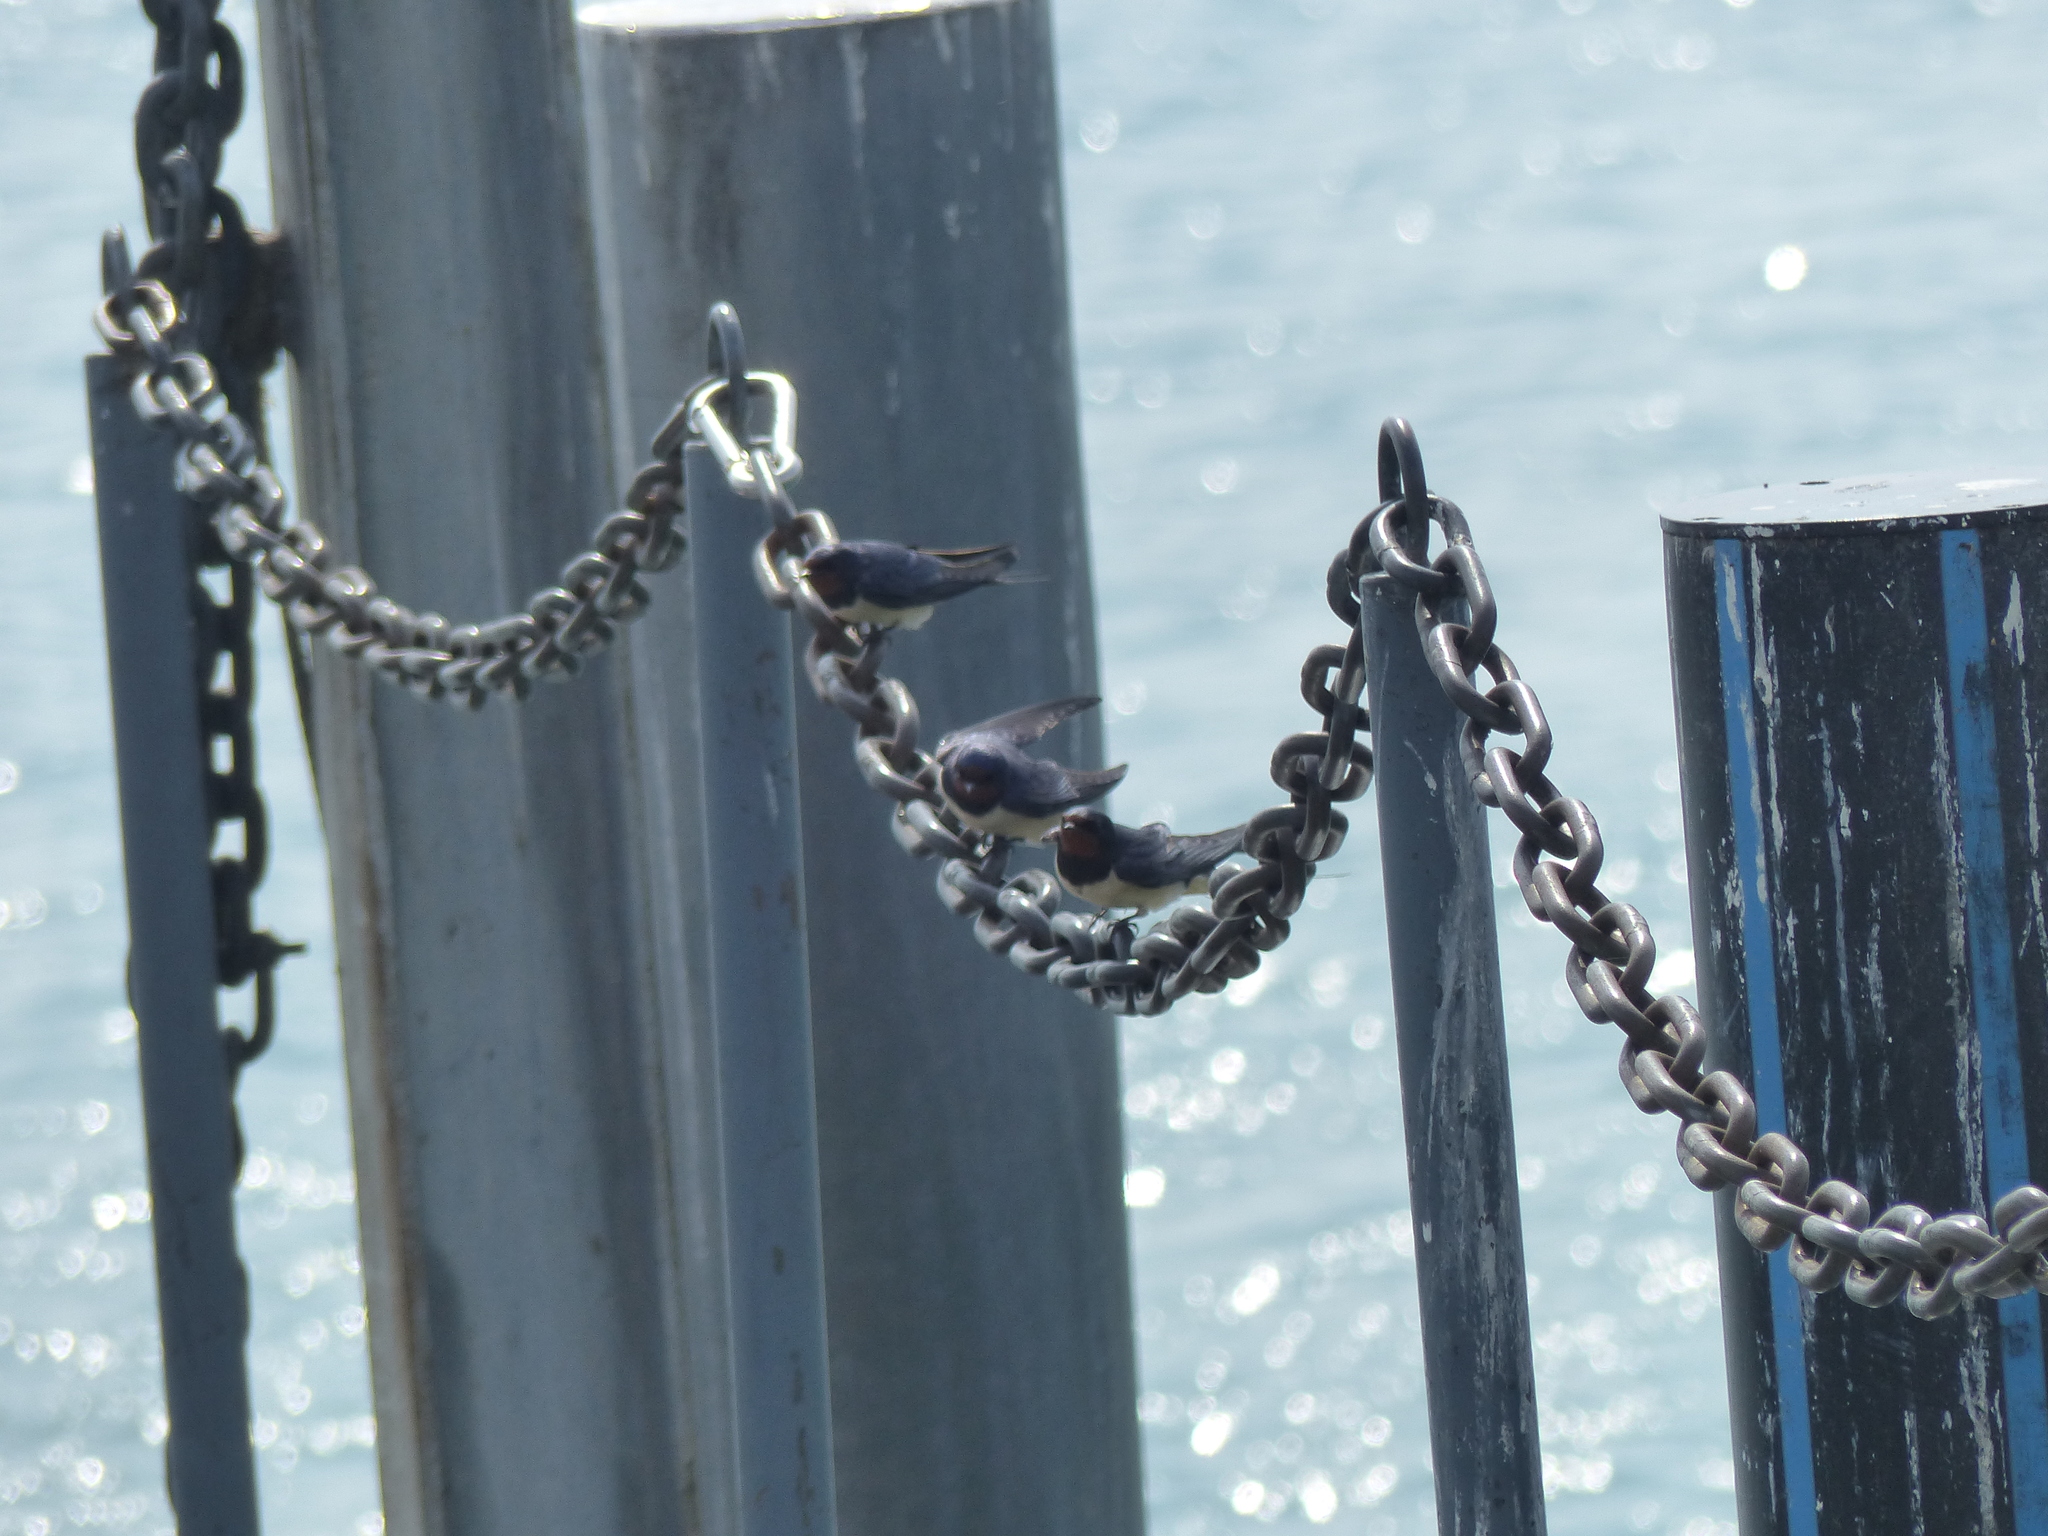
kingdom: Animalia
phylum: Chordata
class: Aves
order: Passeriformes
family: Hirundinidae
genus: Hirundo
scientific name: Hirundo rustica
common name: Barn swallow
